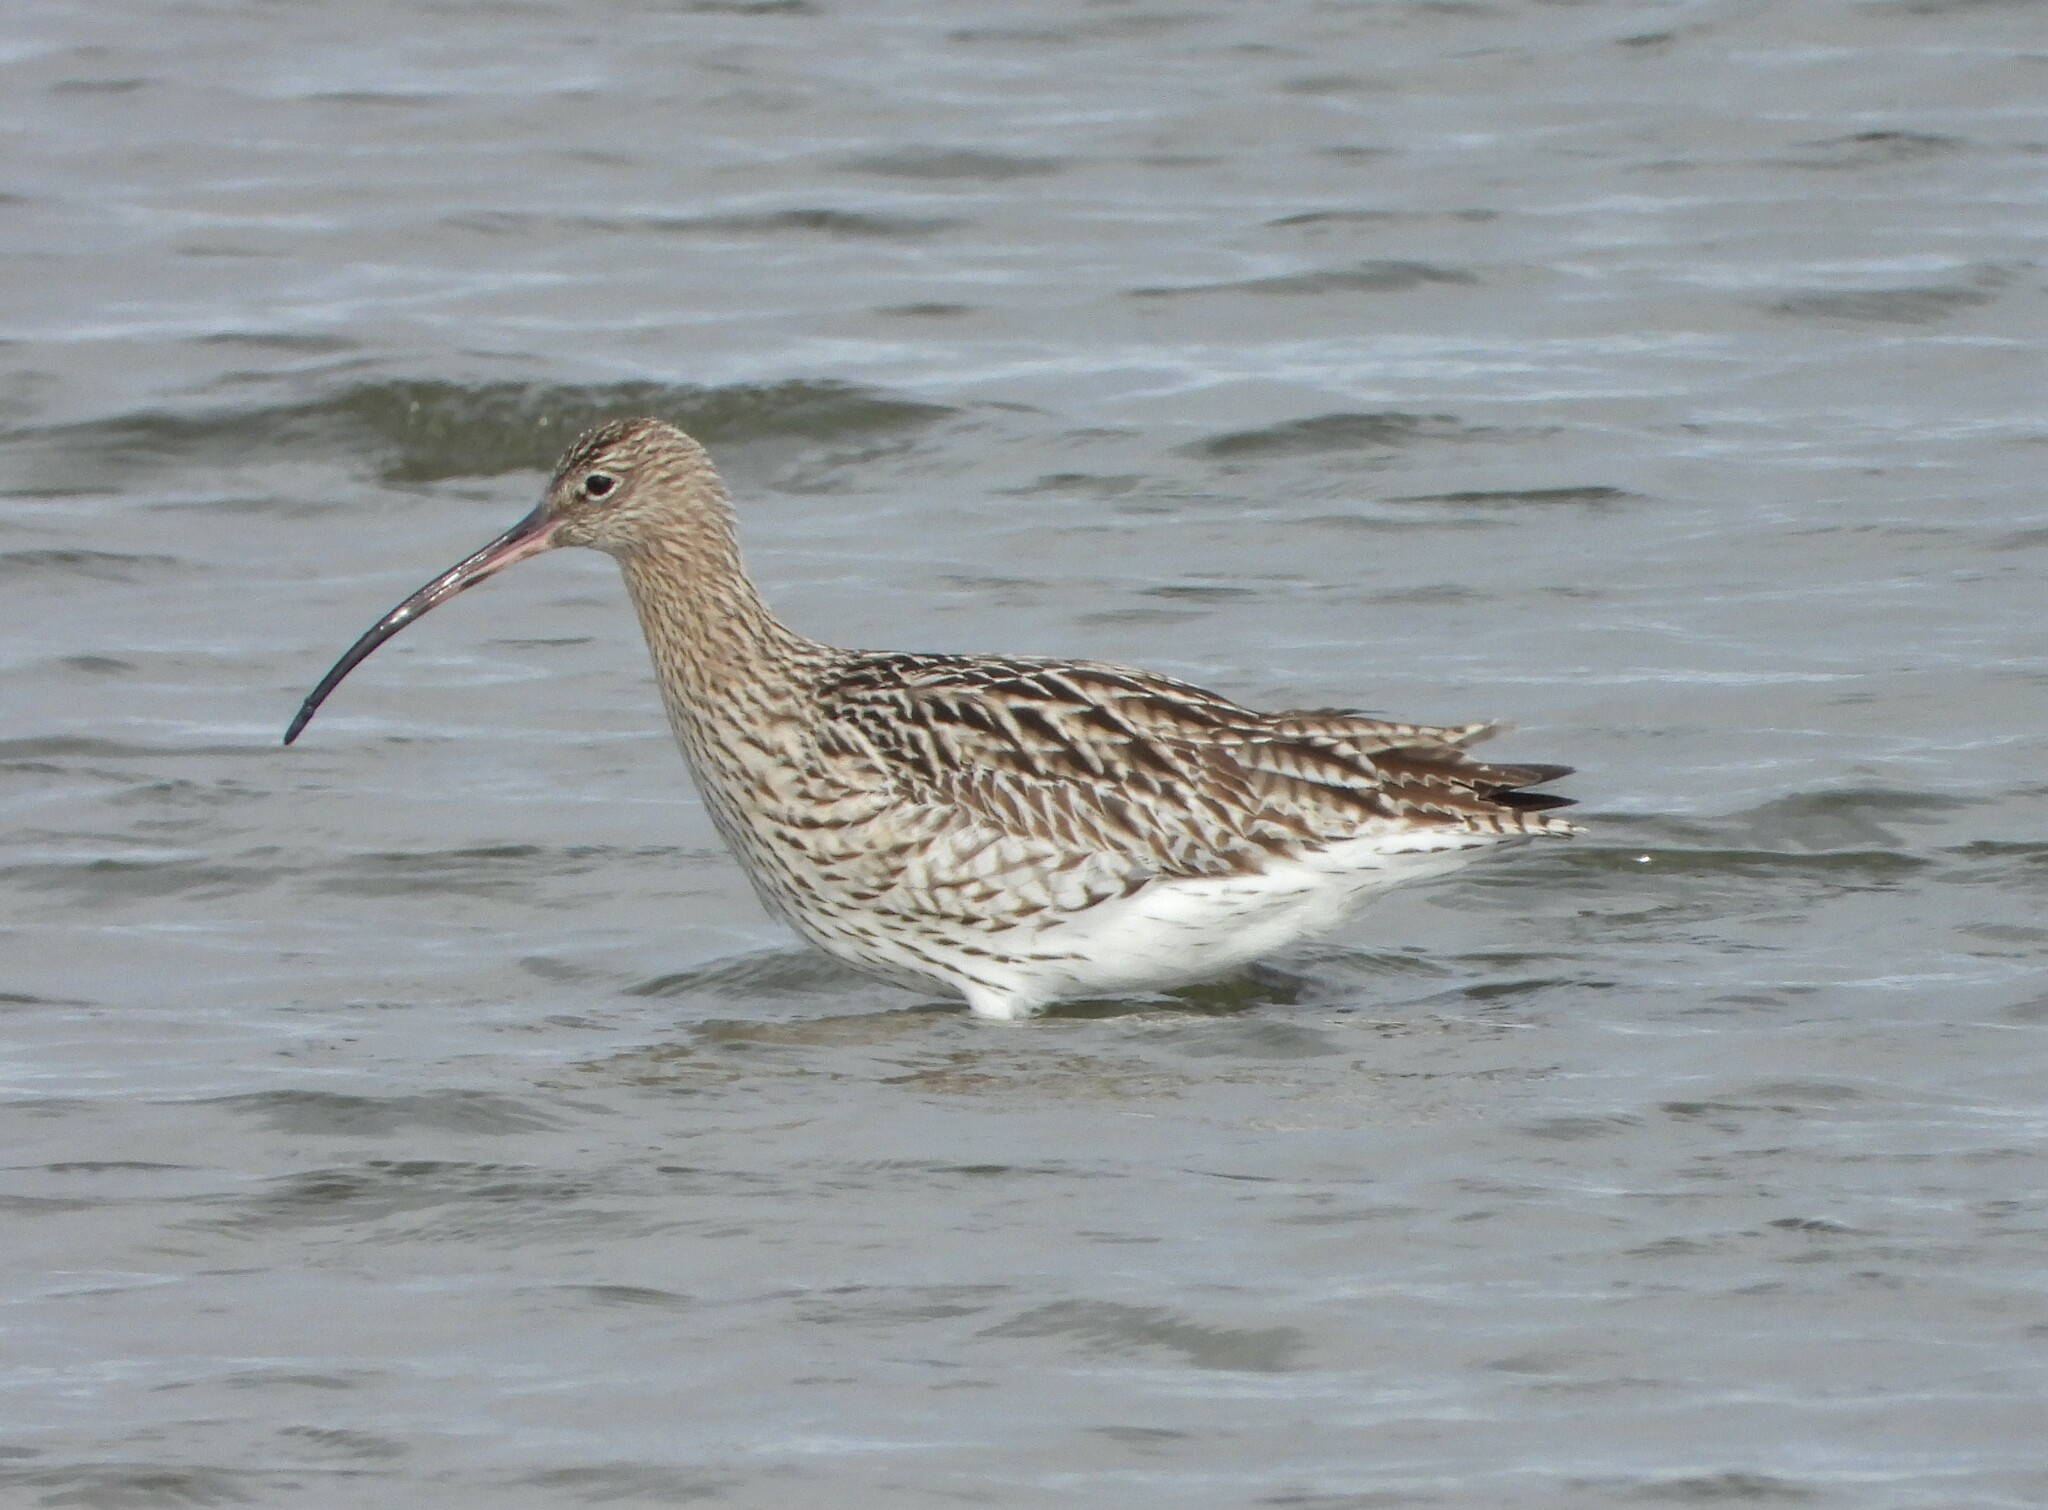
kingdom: Animalia
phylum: Chordata
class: Aves
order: Charadriiformes
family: Scolopacidae
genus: Numenius
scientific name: Numenius arquata
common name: Eurasian curlew
